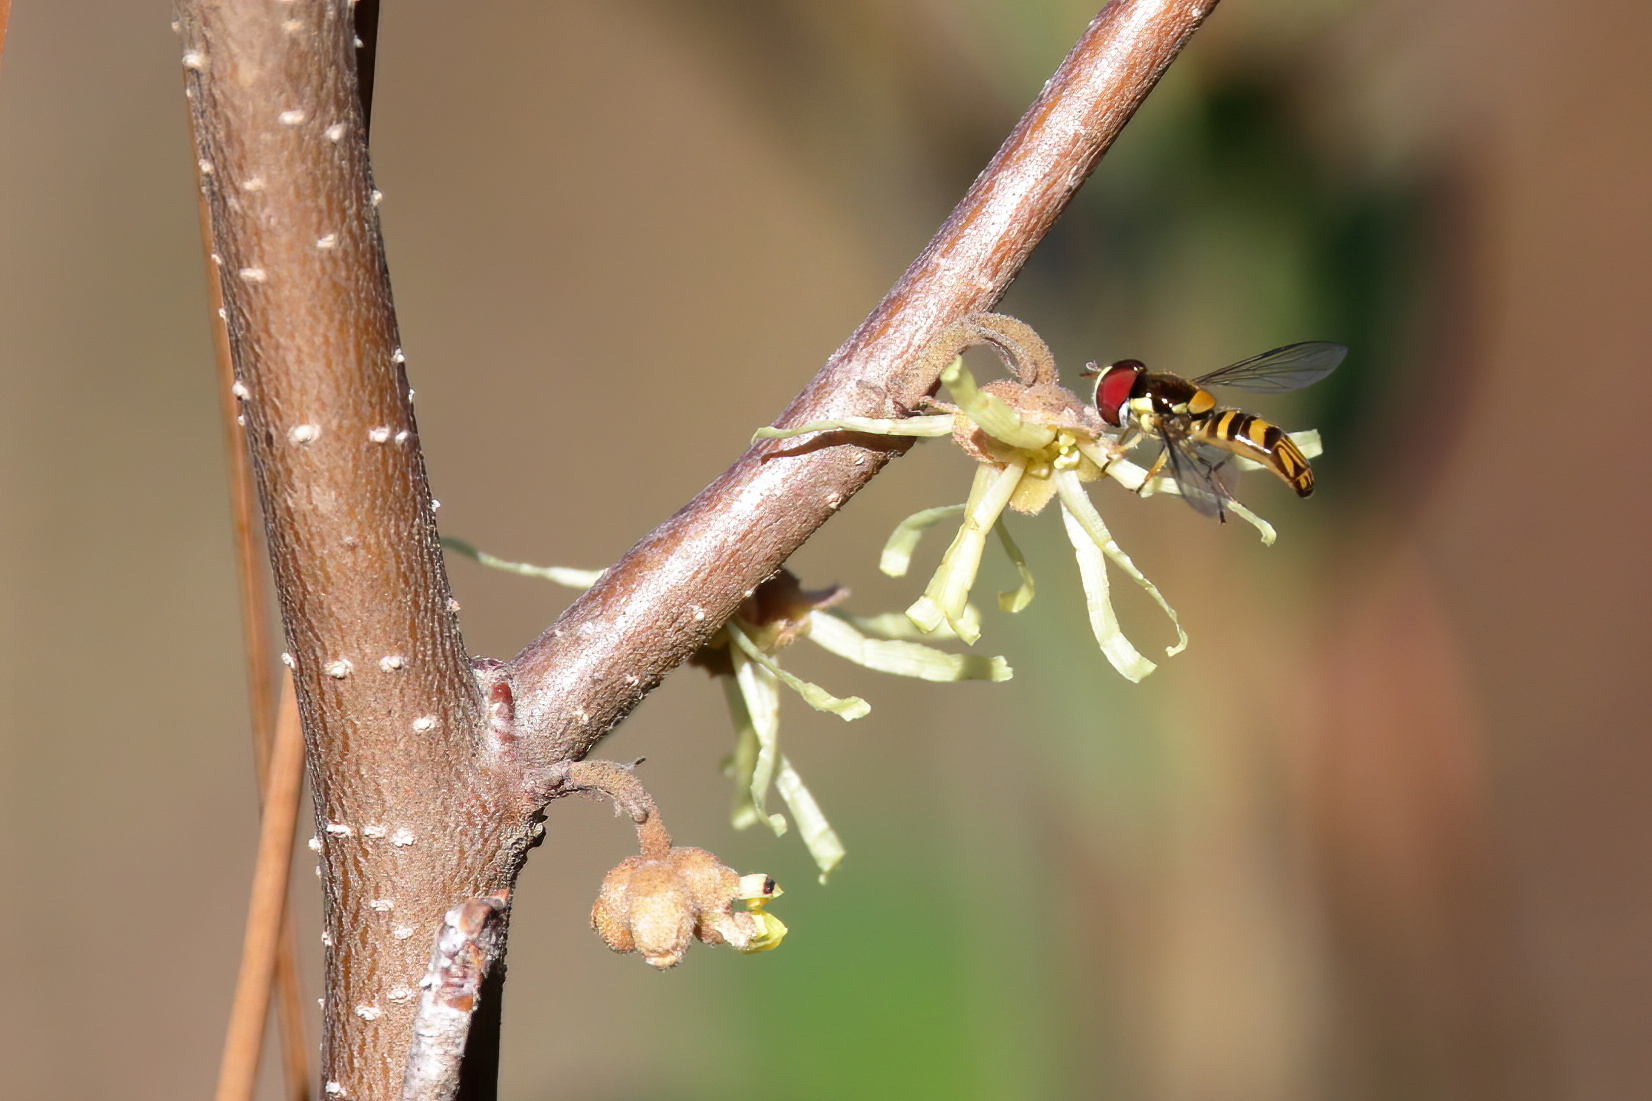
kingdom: Animalia
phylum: Arthropoda
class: Insecta
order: Diptera
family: Syrphidae
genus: Allograpta
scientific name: Allograpta obliqua
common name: Common oblique syrphid
